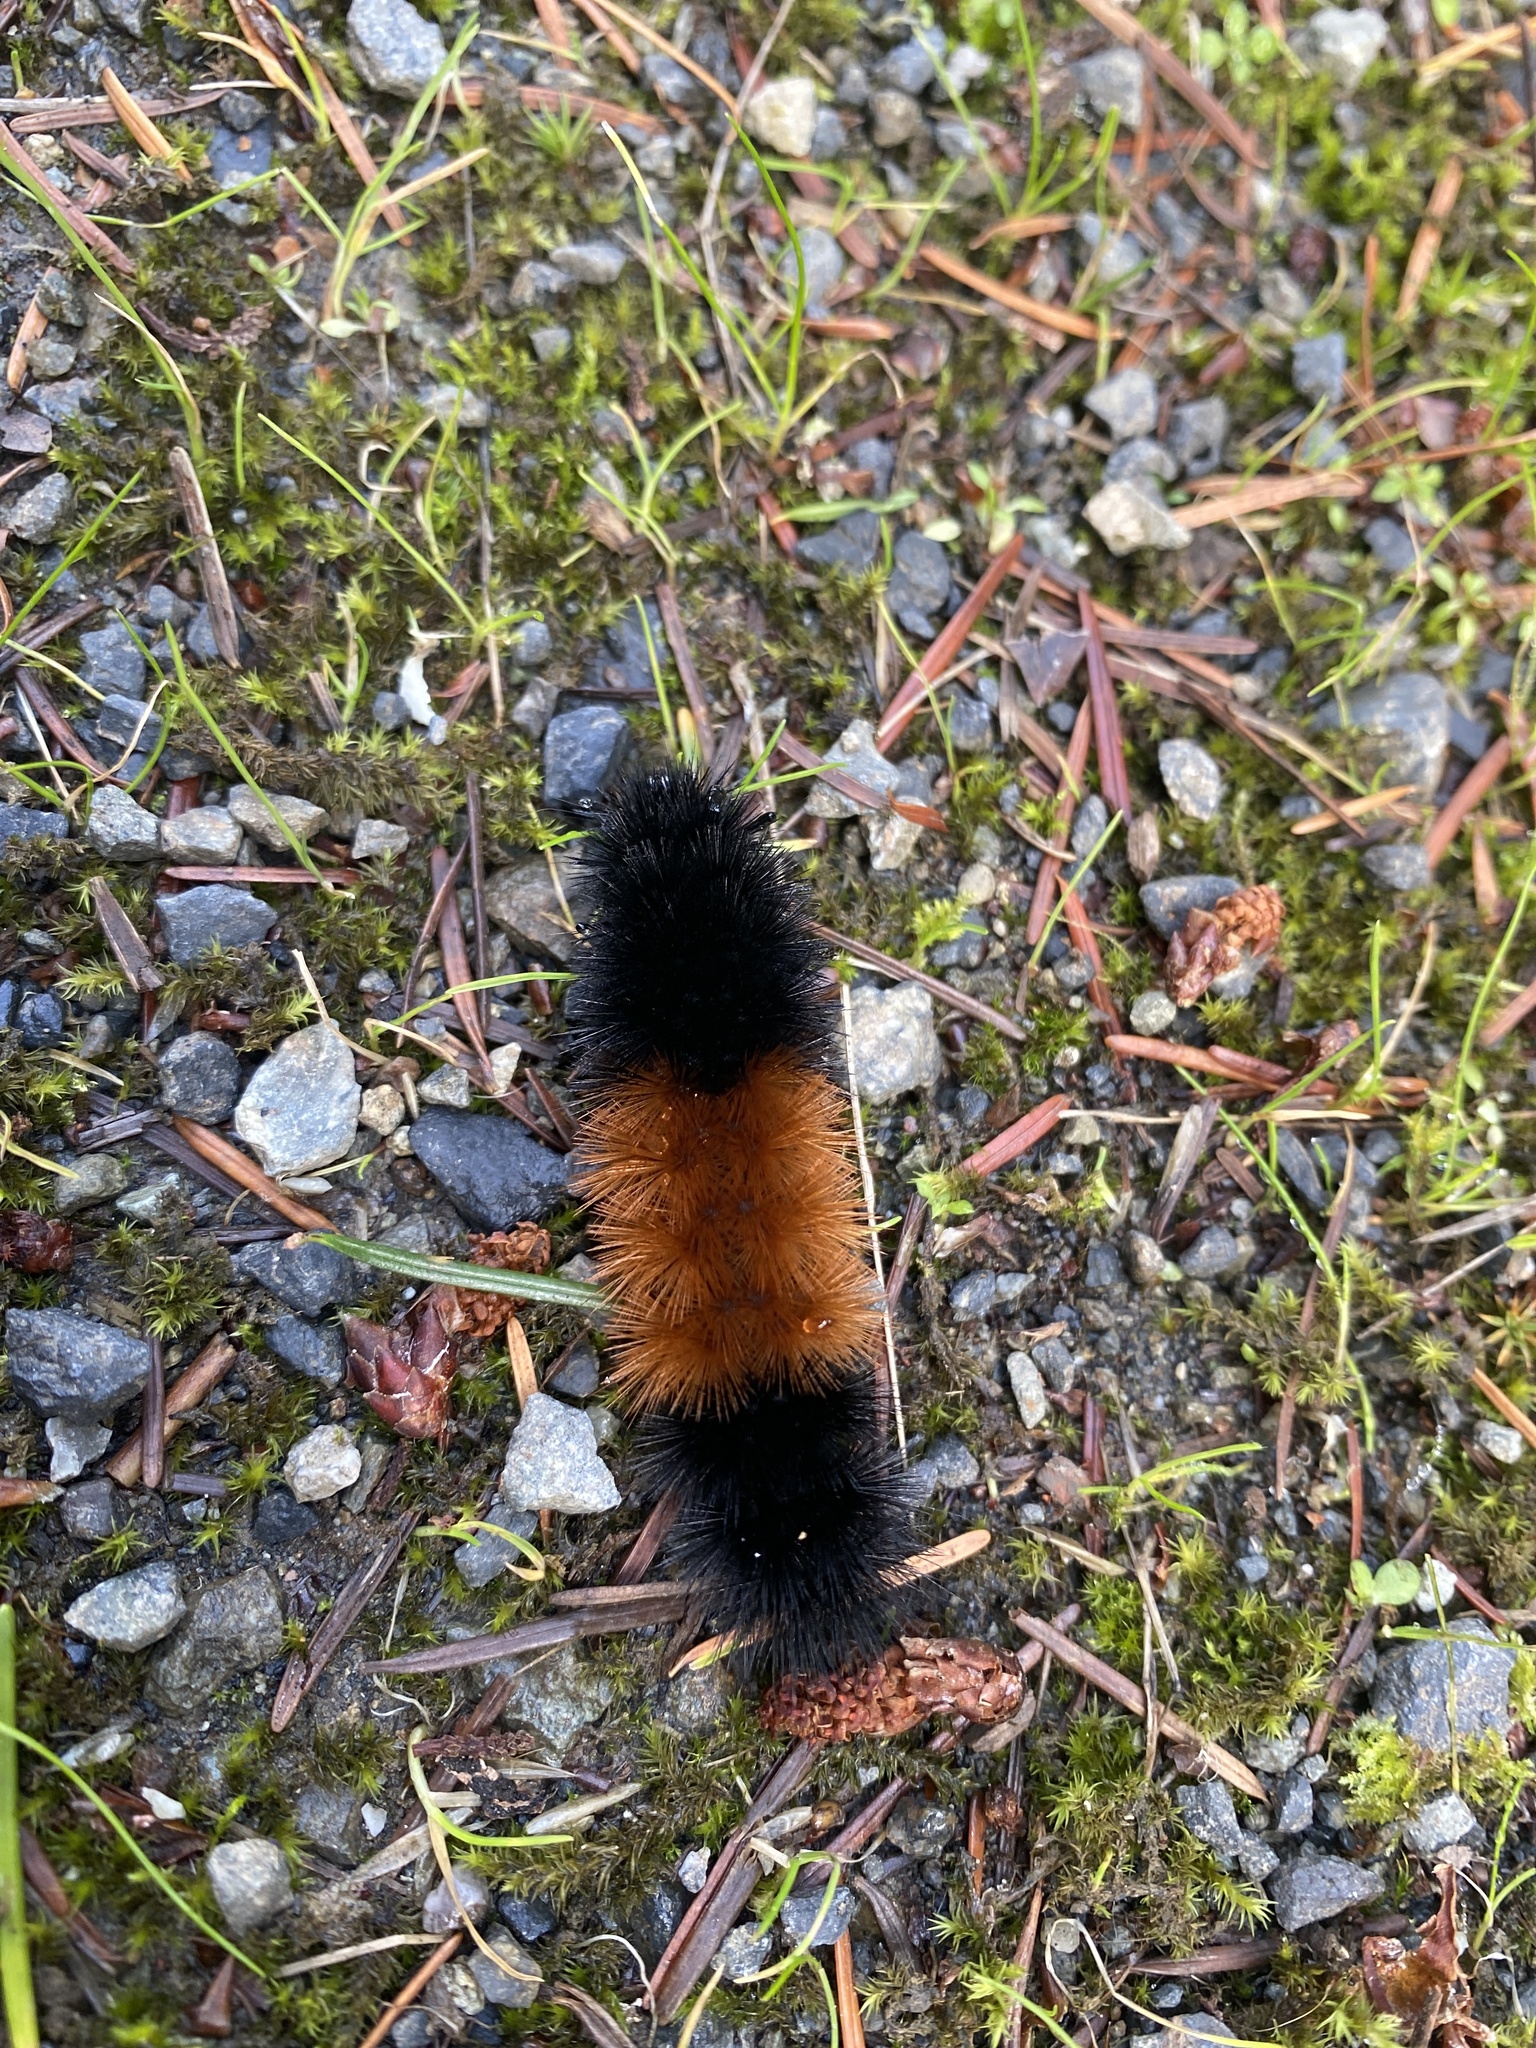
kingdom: Animalia
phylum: Arthropoda
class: Insecta
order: Lepidoptera
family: Erebidae
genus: Pyrrharctia
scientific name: Pyrrharctia isabella
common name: Isabella tiger moth
